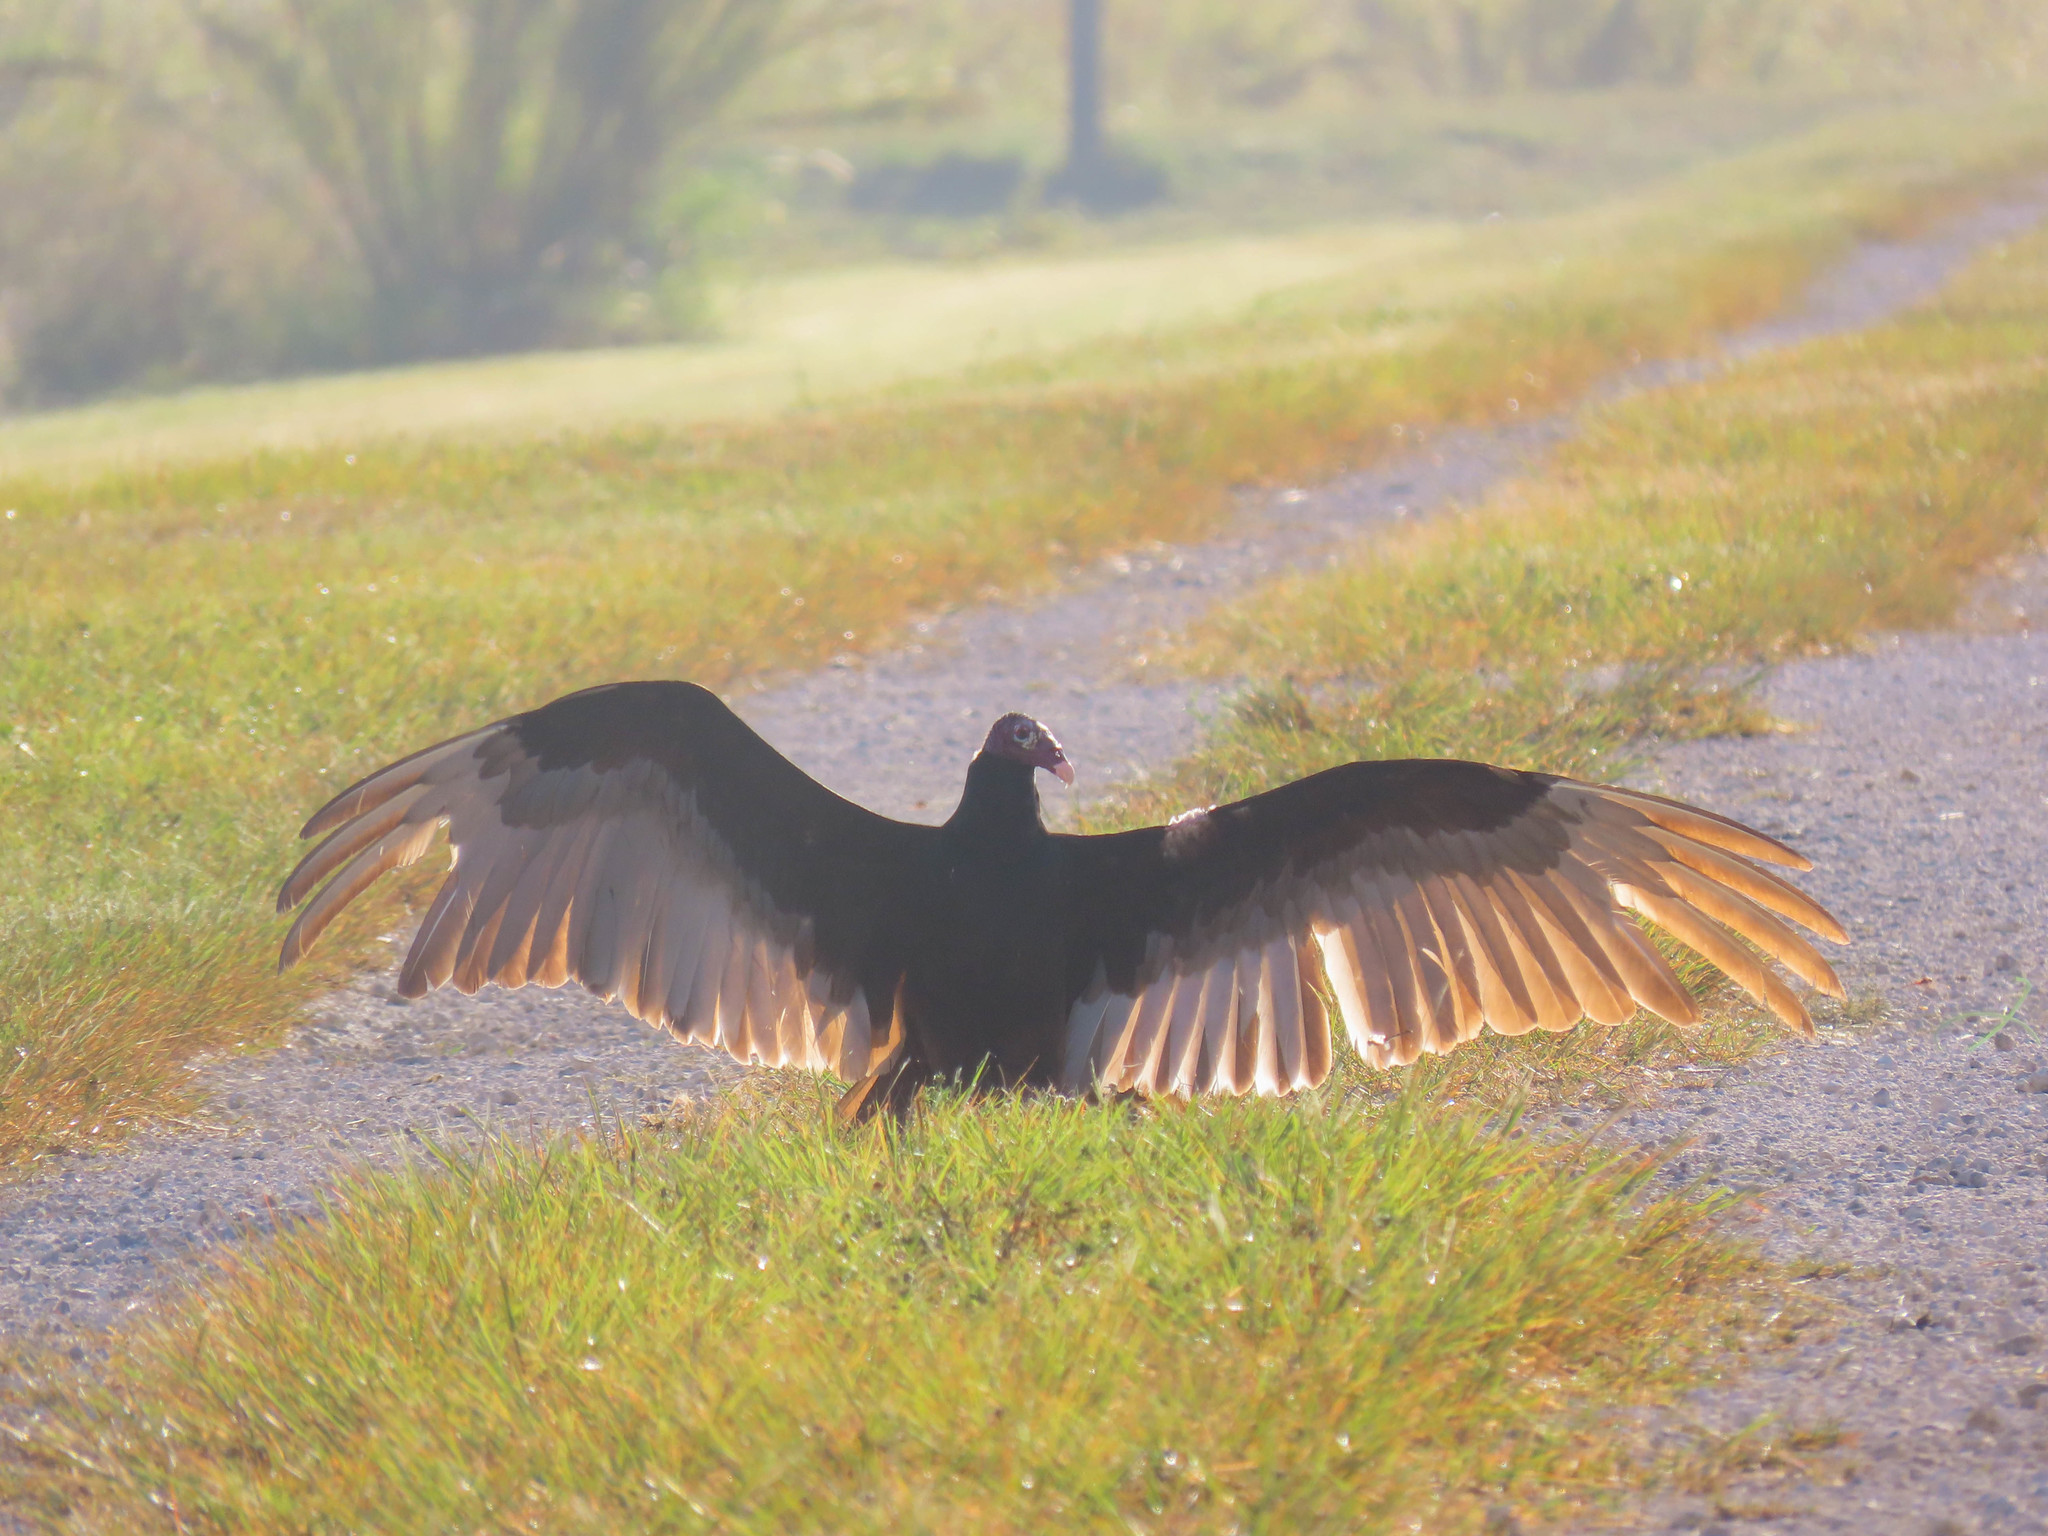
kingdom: Animalia
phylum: Chordata
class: Aves
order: Accipitriformes
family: Cathartidae
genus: Cathartes
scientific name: Cathartes aura
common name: Turkey vulture
